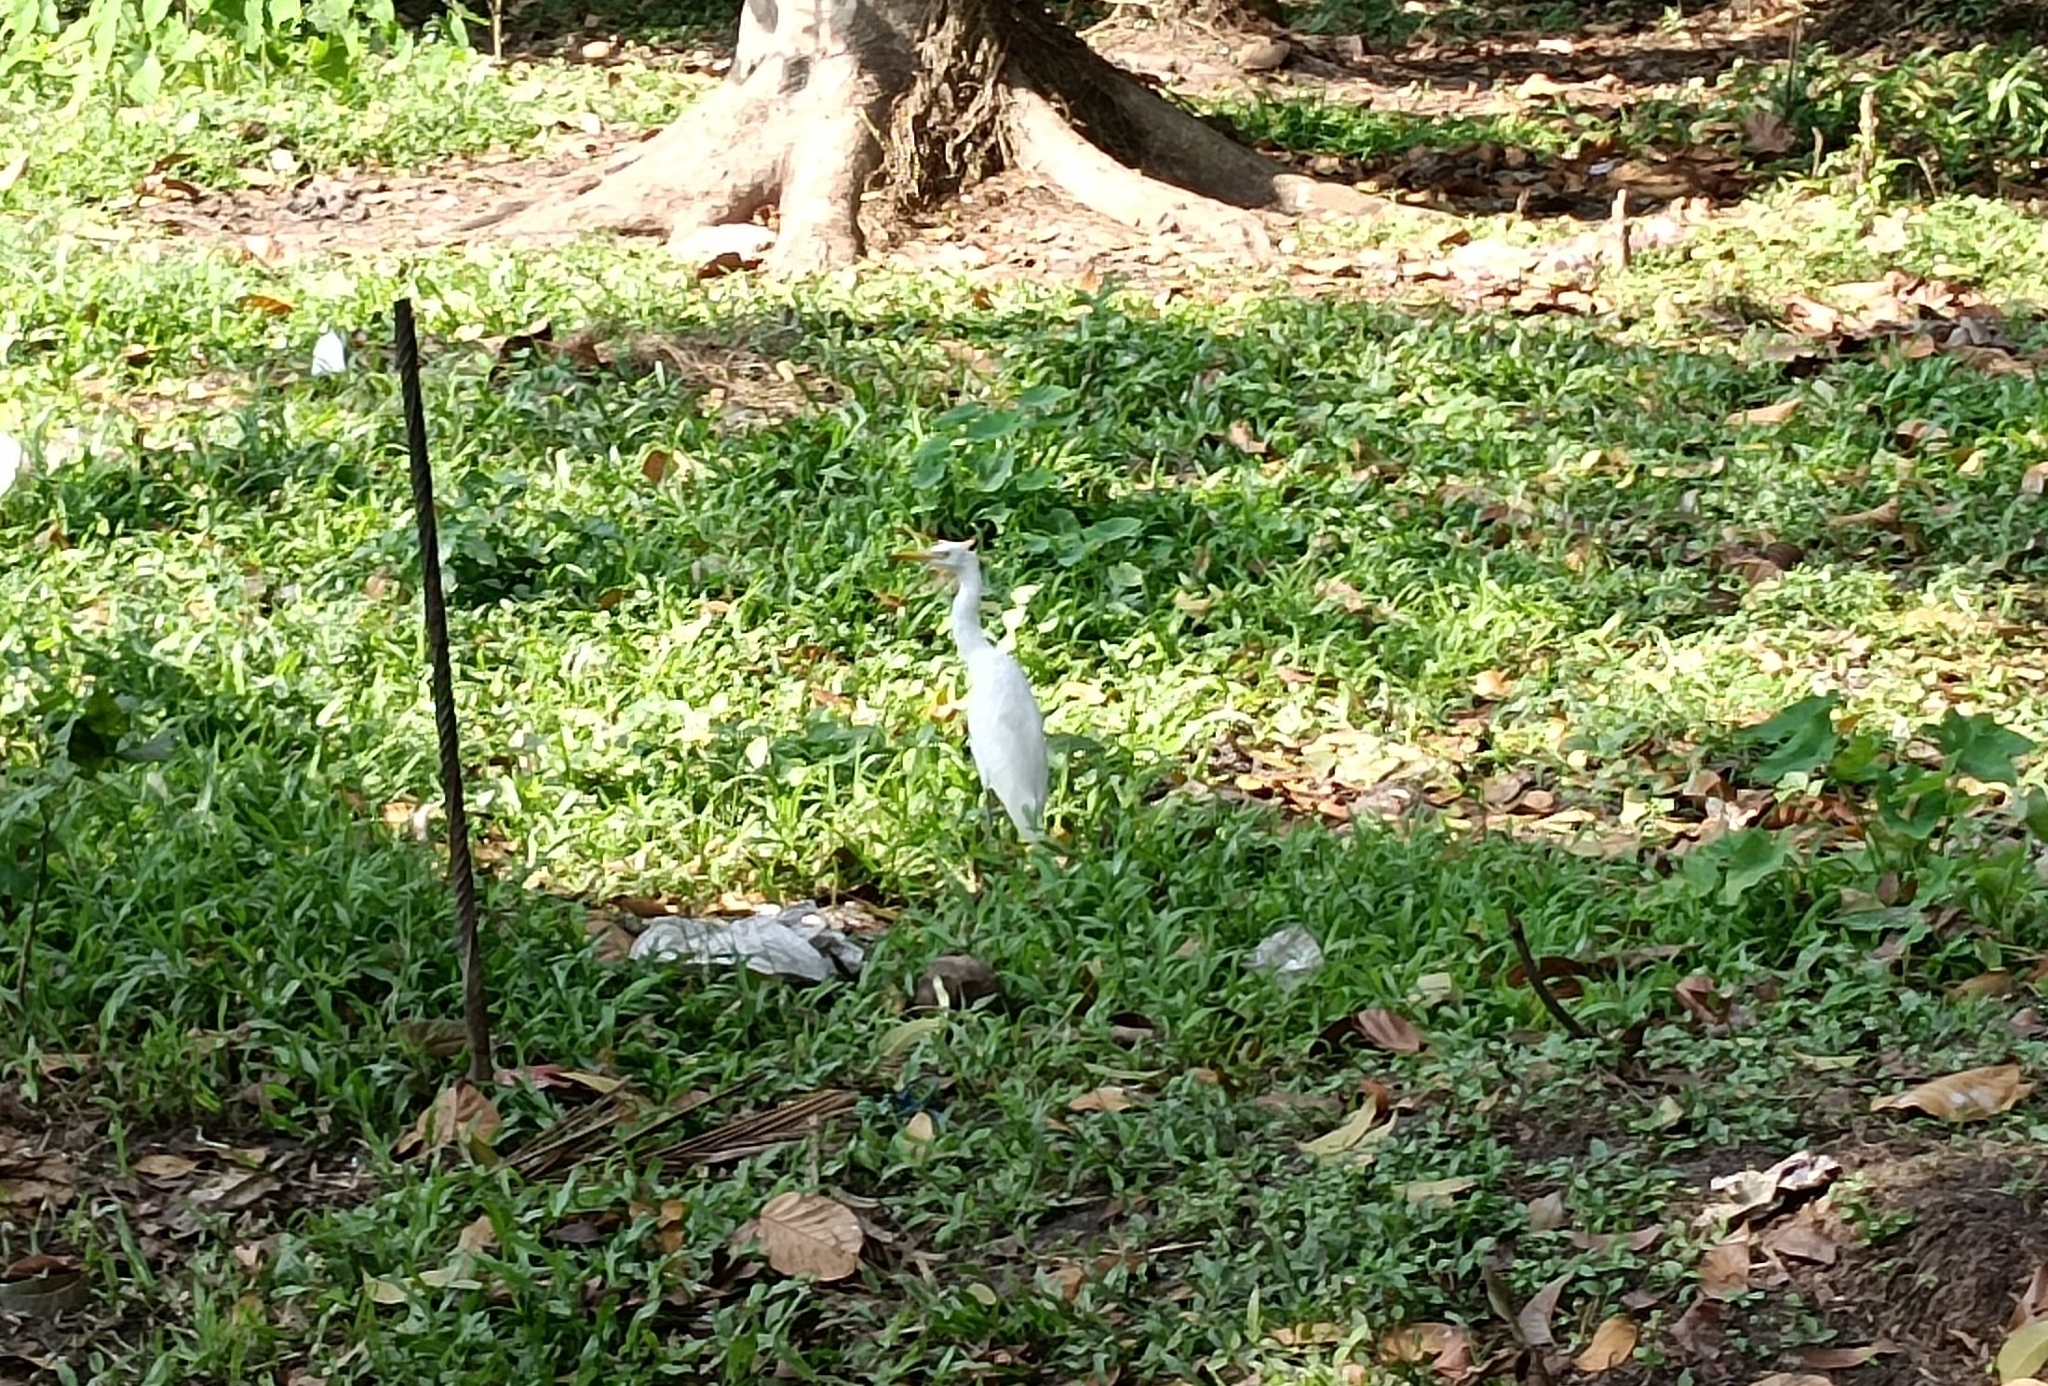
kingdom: Animalia
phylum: Chordata
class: Aves
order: Pelecaniformes
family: Ardeidae
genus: Bubulcus
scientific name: Bubulcus coromandus
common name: Eastern cattle egret
